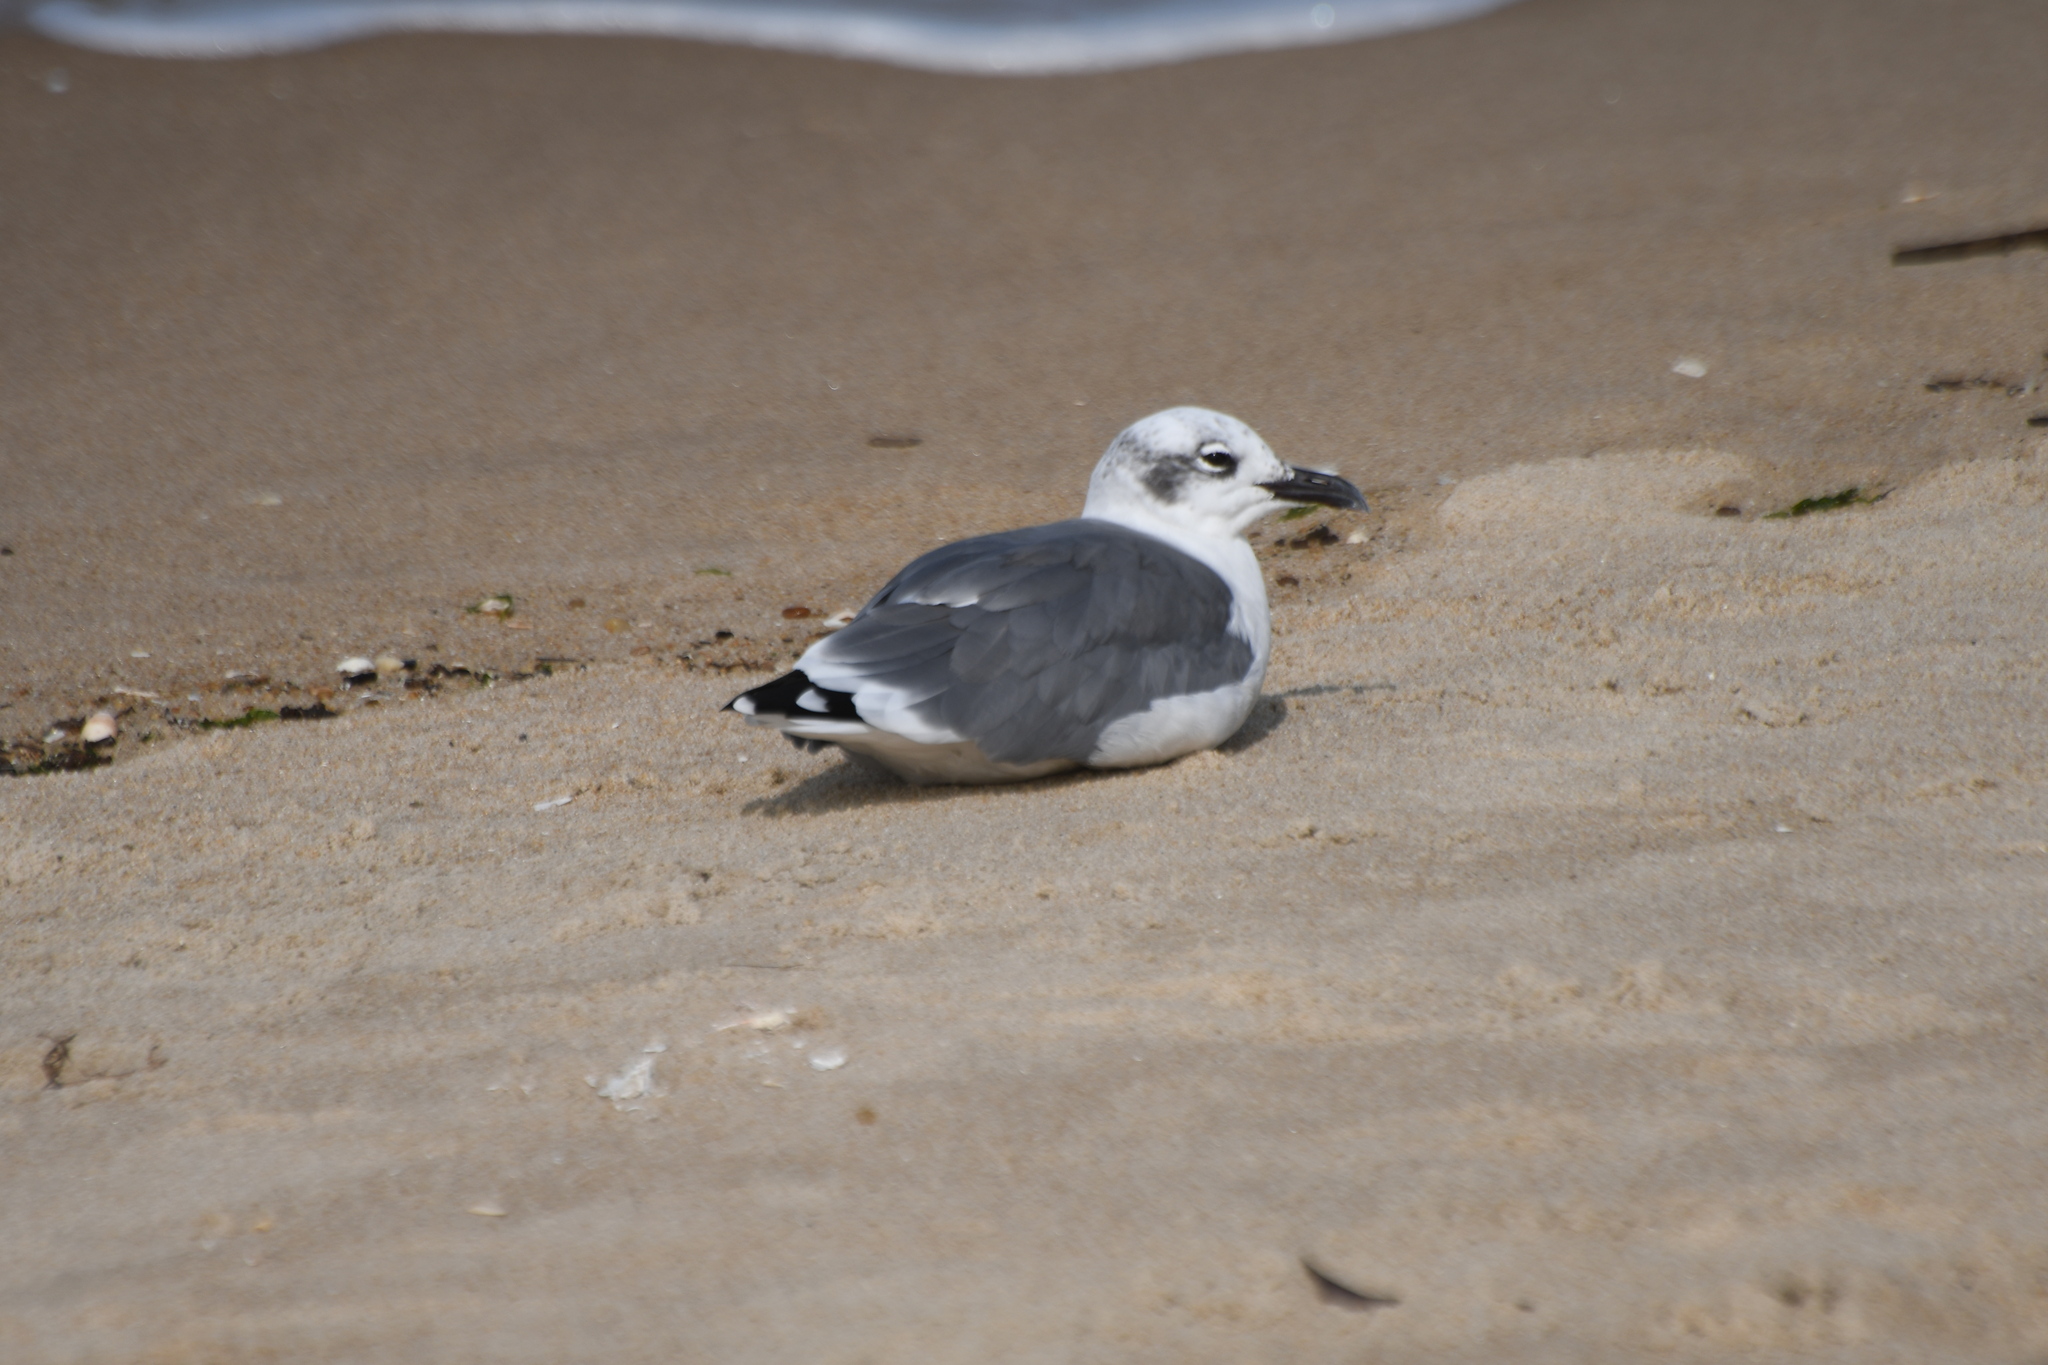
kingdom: Animalia
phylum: Chordata
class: Aves
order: Charadriiformes
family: Laridae
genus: Leucophaeus
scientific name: Leucophaeus atricilla
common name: Laughing gull
